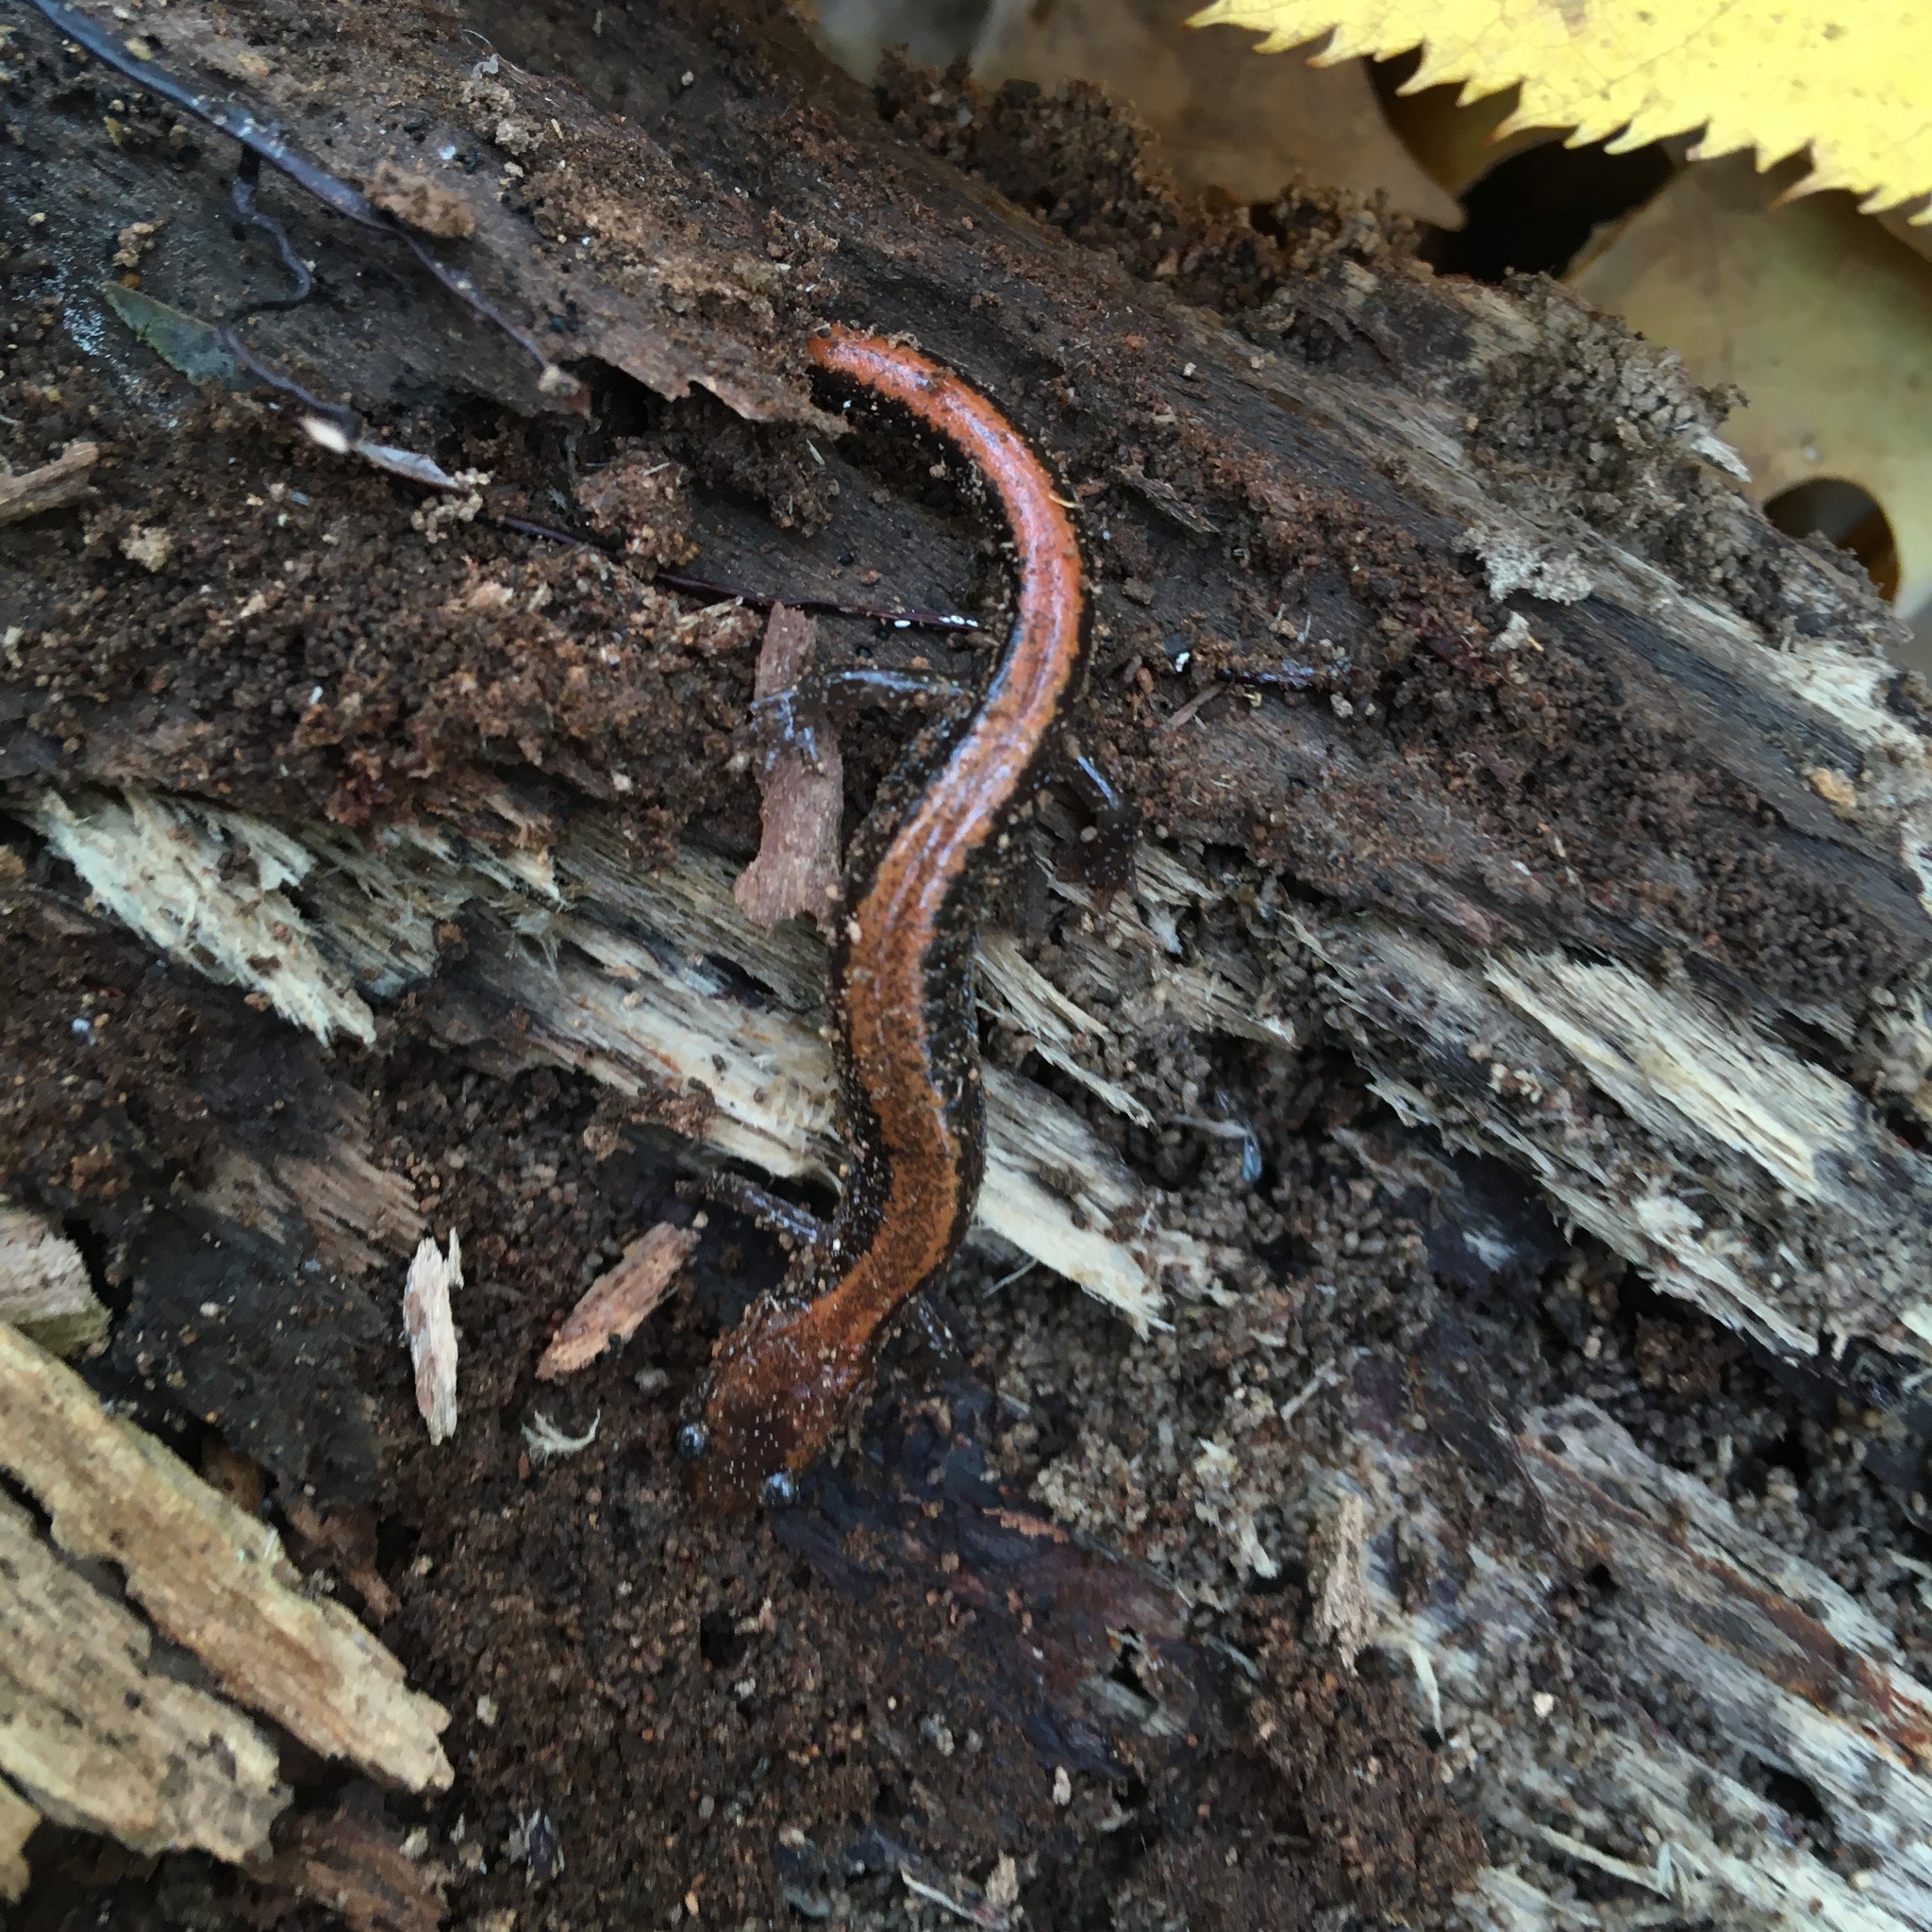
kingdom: Animalia
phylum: Chordata
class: Amphibia
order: Caudata
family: Plethodontidae
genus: Plethodon
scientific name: Plethodon cinereus
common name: Redback salamander
